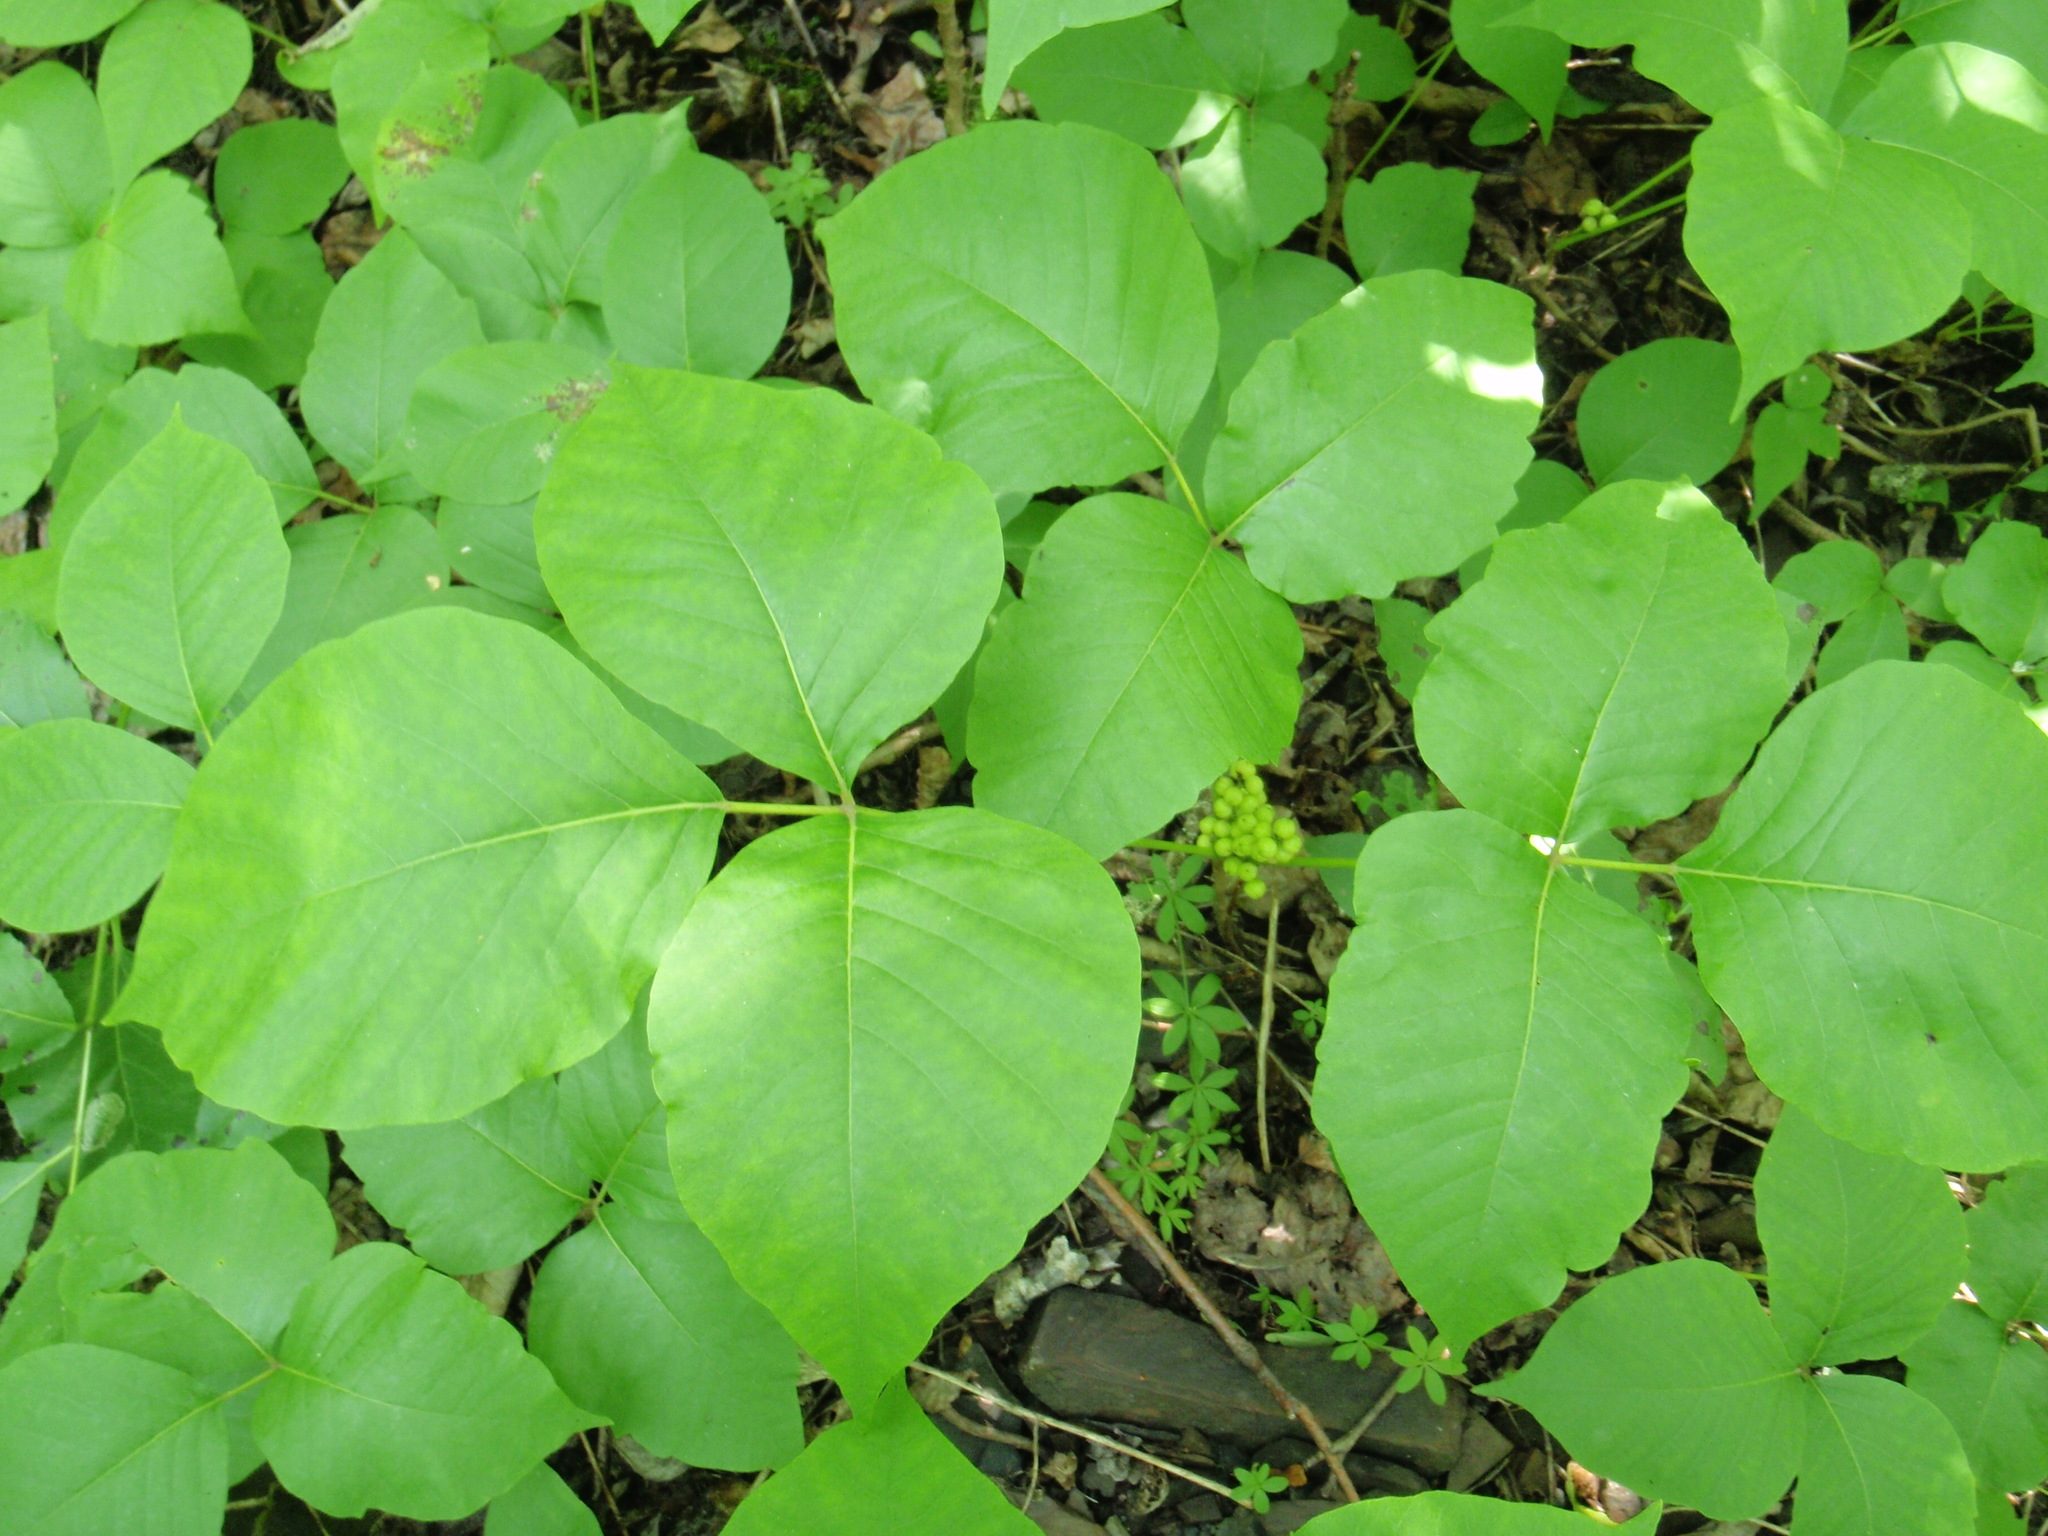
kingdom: Plantae
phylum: Tracheophyta
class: Magnoliopsida
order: Sapindales
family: Anacardiaceae
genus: Toxicodendron
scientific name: Toxicodendron rydbergii
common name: Rydberg's poison-ivy
